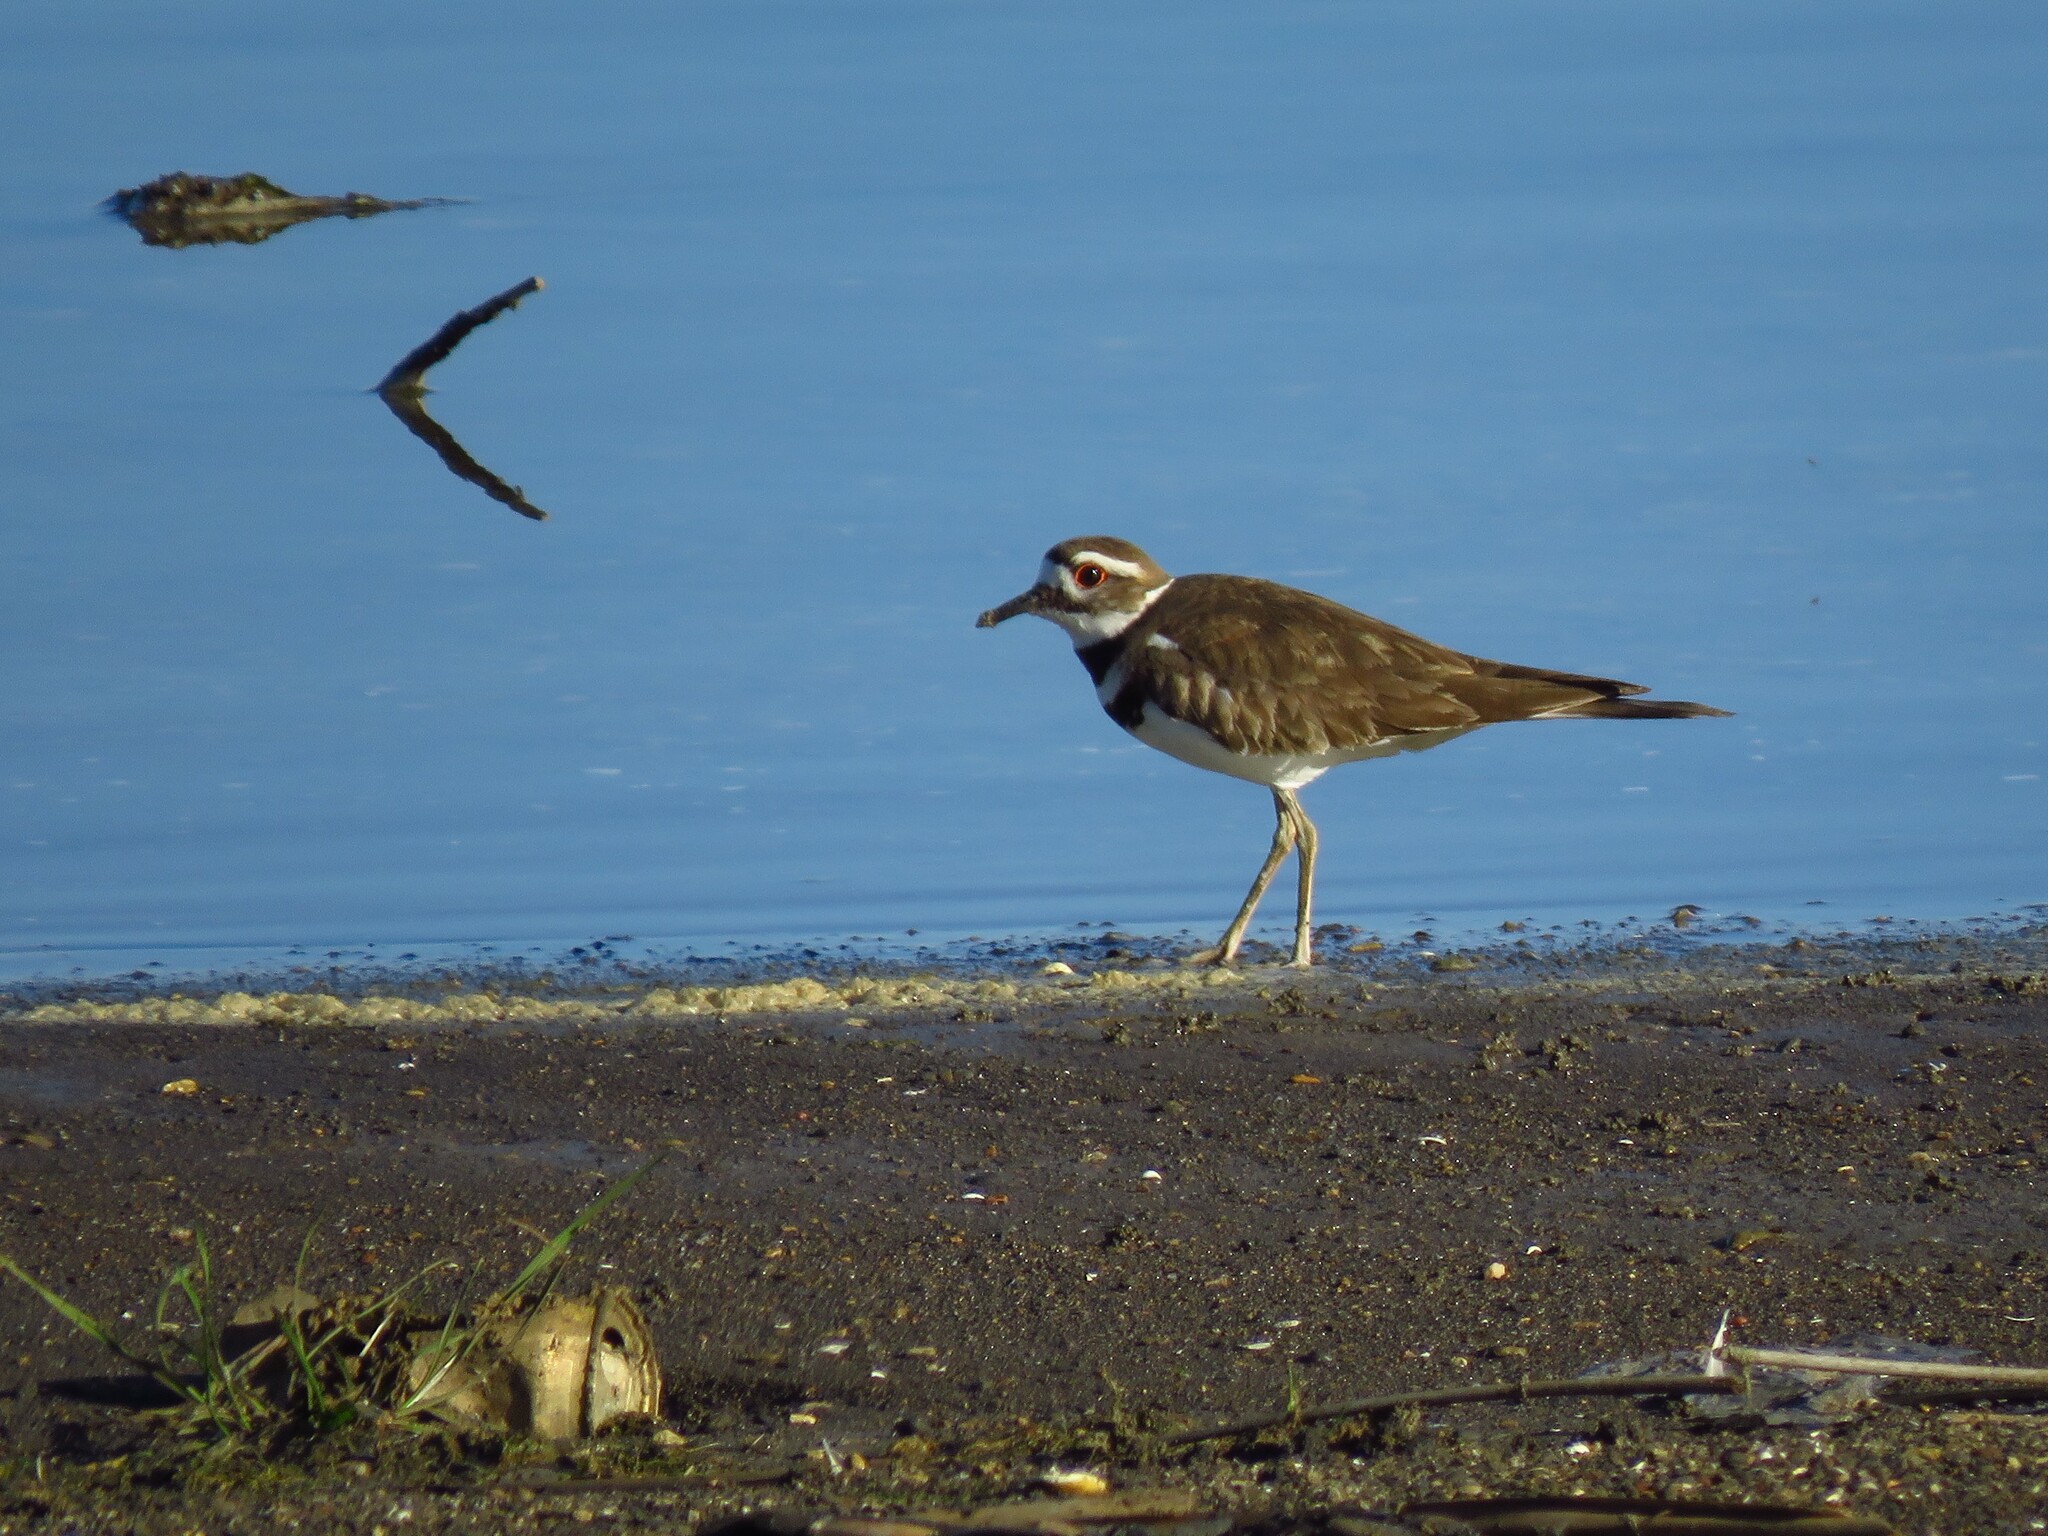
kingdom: Animalia
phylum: Chordata
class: Aves
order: Charadriiformes
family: Charadriidae
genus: Charadrius
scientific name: Charadrius vociferus
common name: Killdeer
